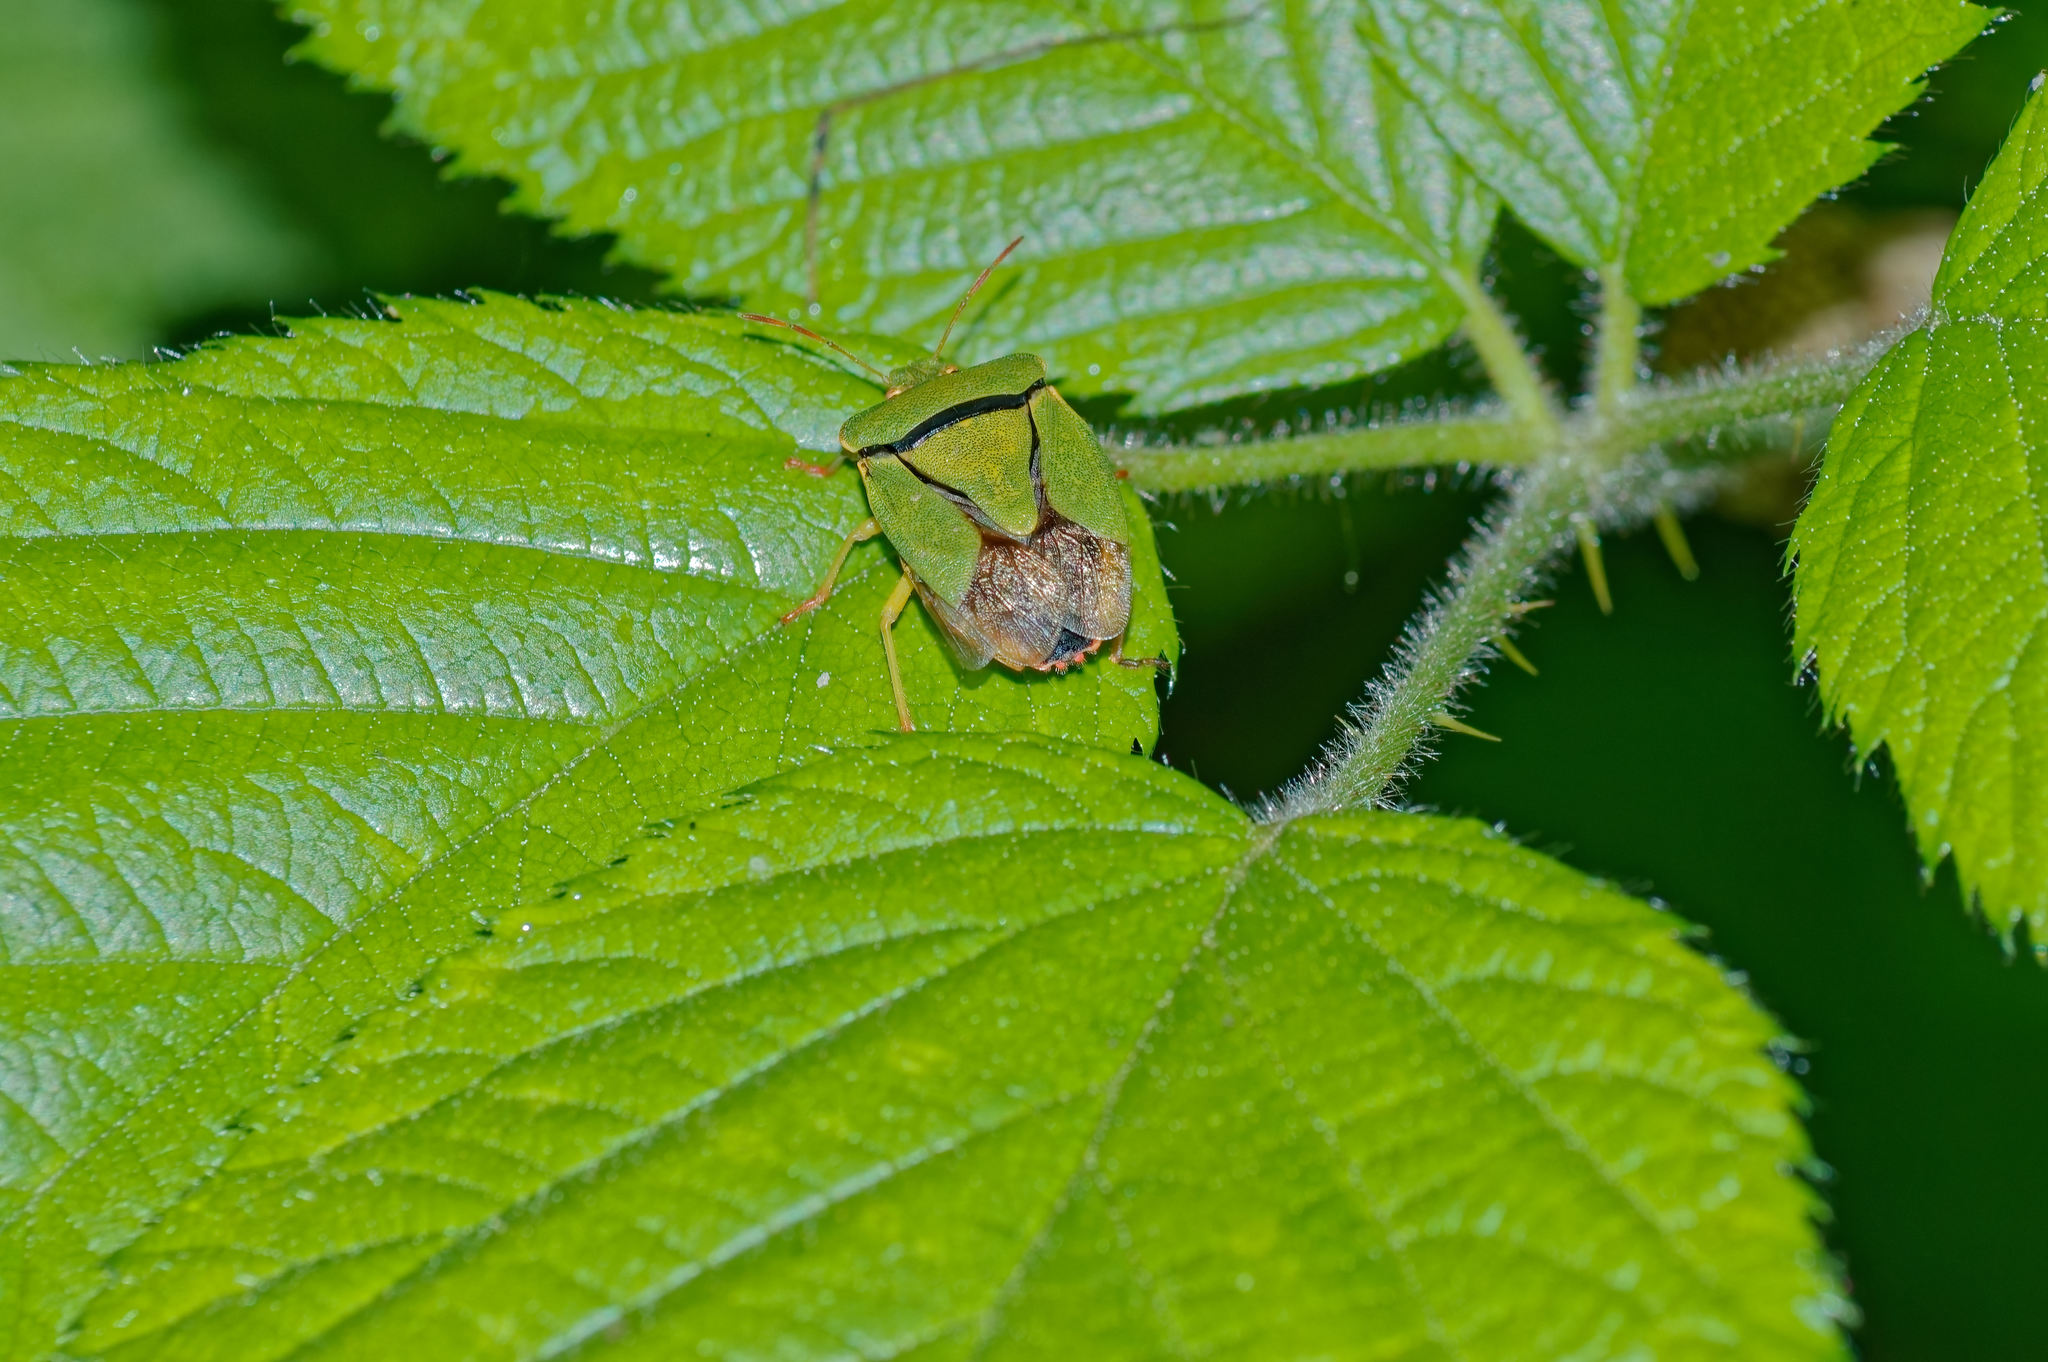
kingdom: Animalia
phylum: Arthropoda
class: Insecta
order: Hemiptera
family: Pentatomidae
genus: Palomena
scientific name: Palomena prasina
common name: Green shieldbug
